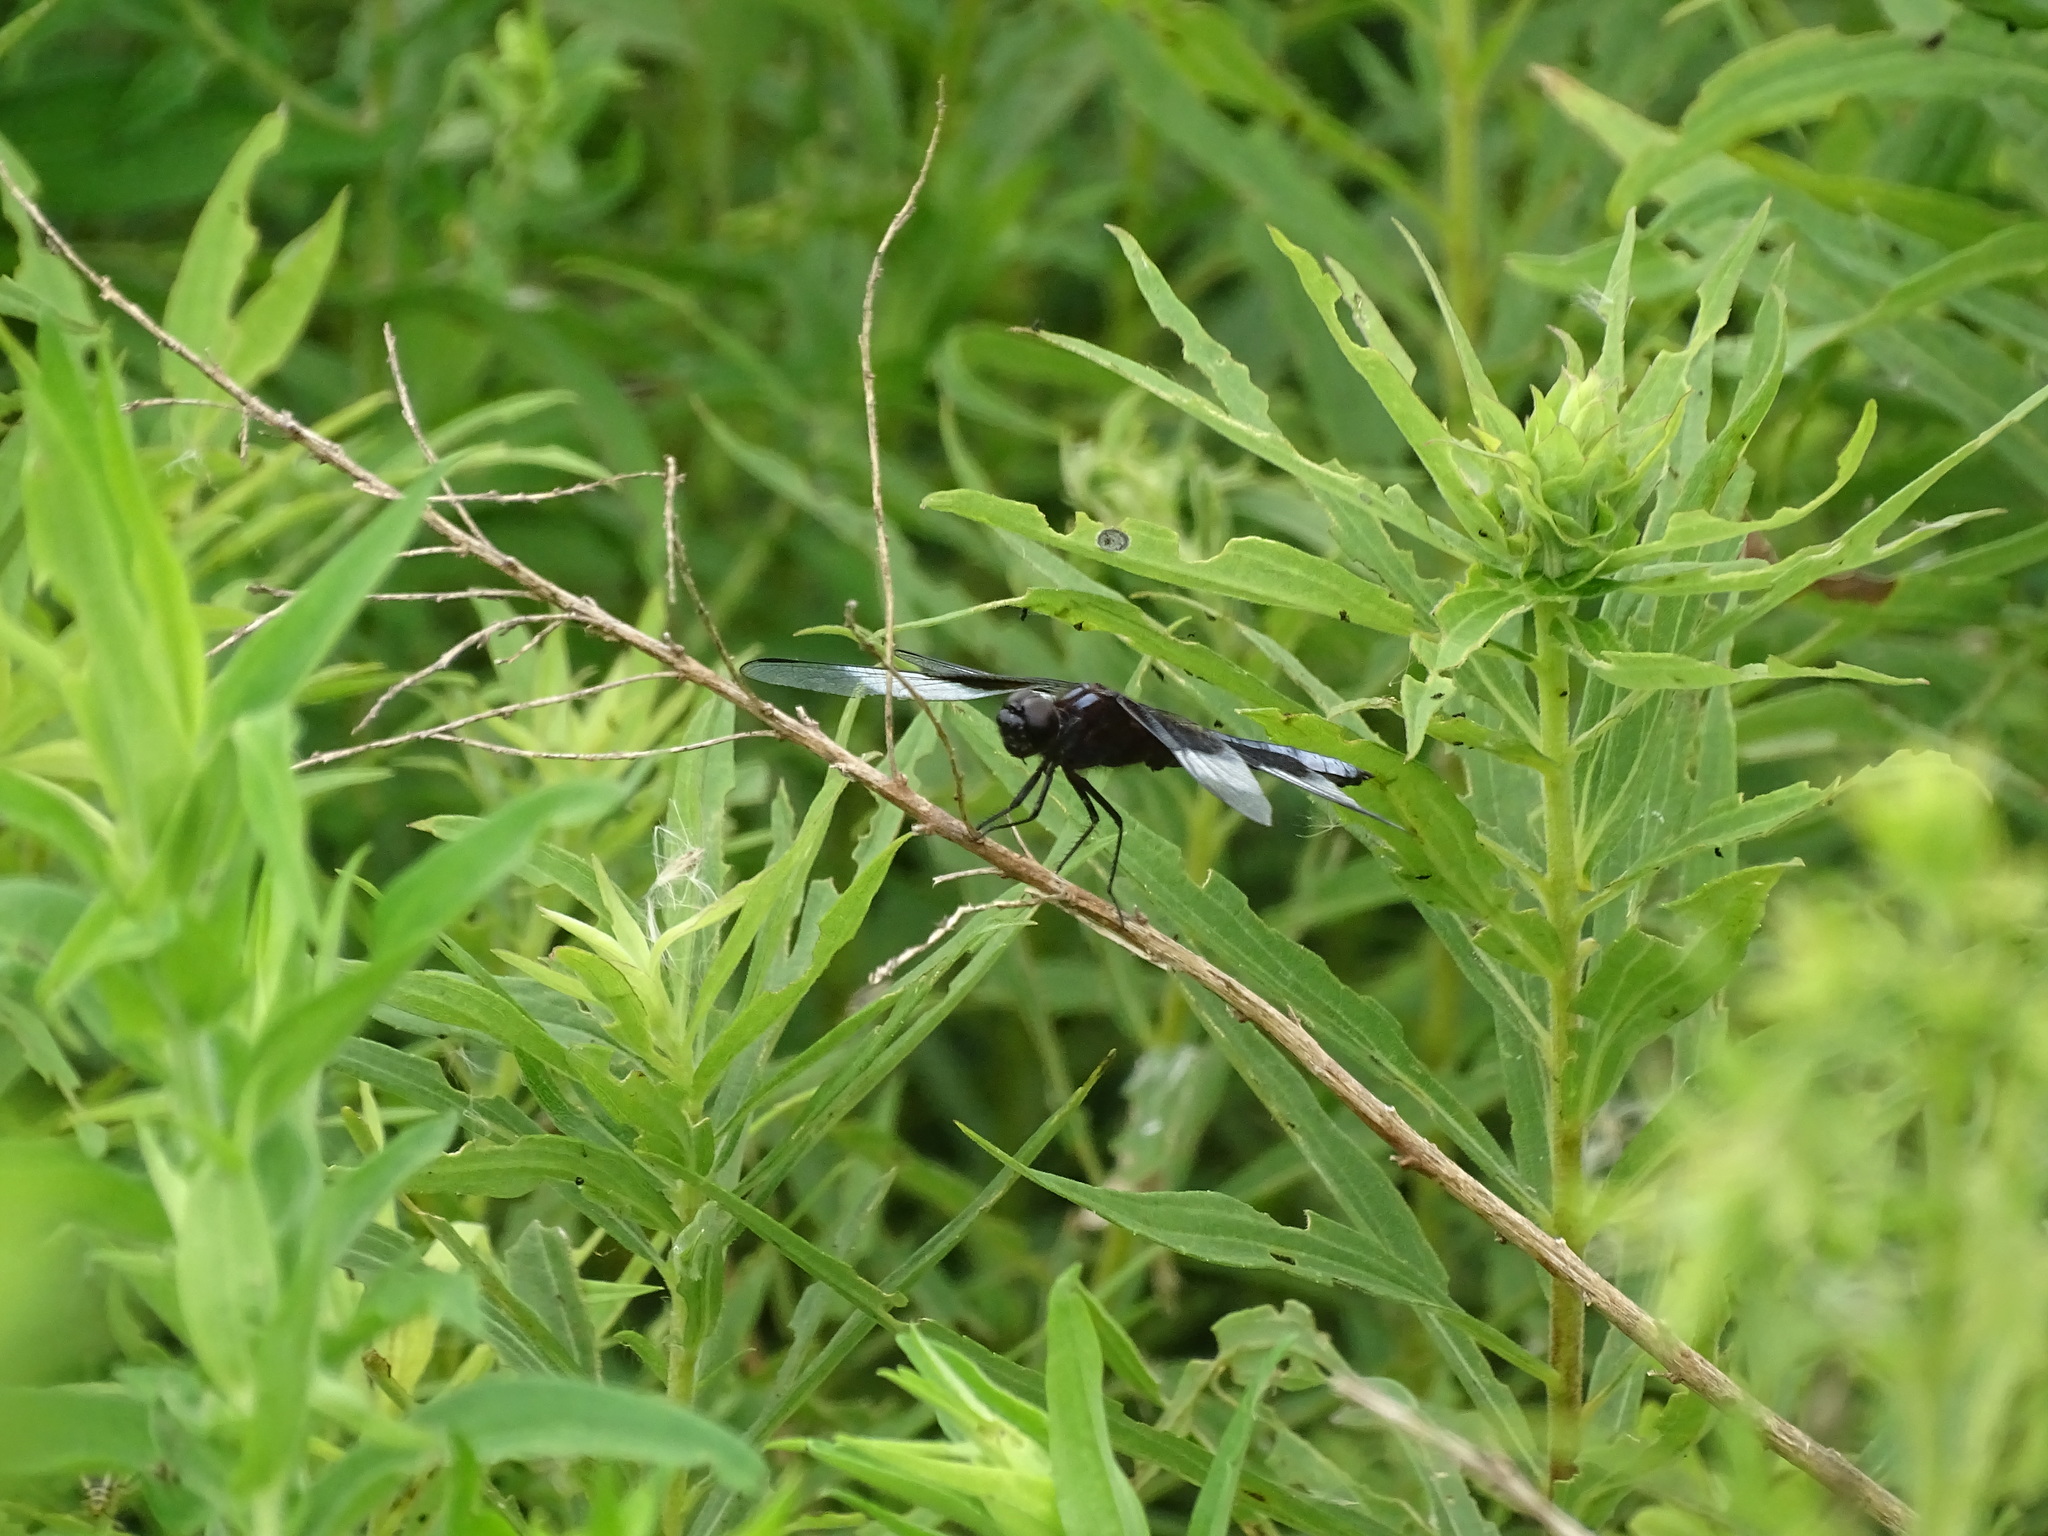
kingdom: Animalia
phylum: Arthropoda
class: Insecta
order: Odonata
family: Libellulidae
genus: Libellula
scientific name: Libellula luctuosa
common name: Widow skimmer
